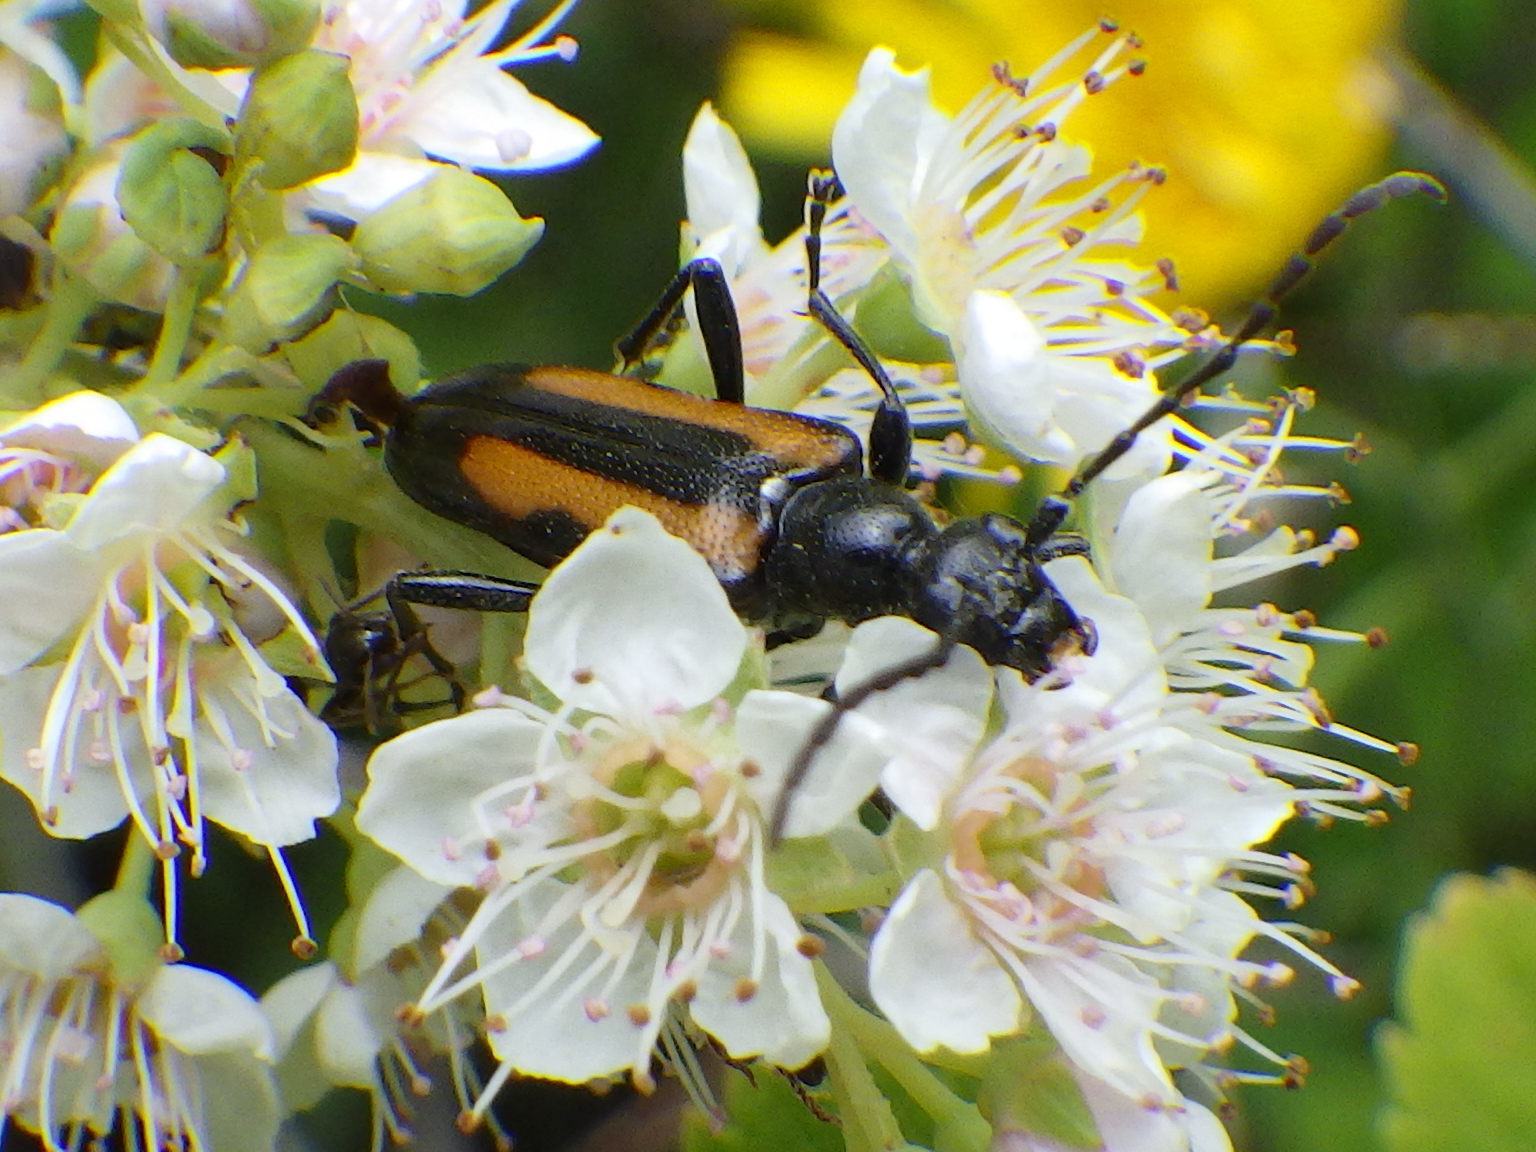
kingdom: Animalia
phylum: Arthropoda
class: Insecta
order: Coleoptera
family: Cerambycidae
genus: Strangalepta
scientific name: Strangalepta abbreviata
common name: Strangalepta flower longhorn beetle
